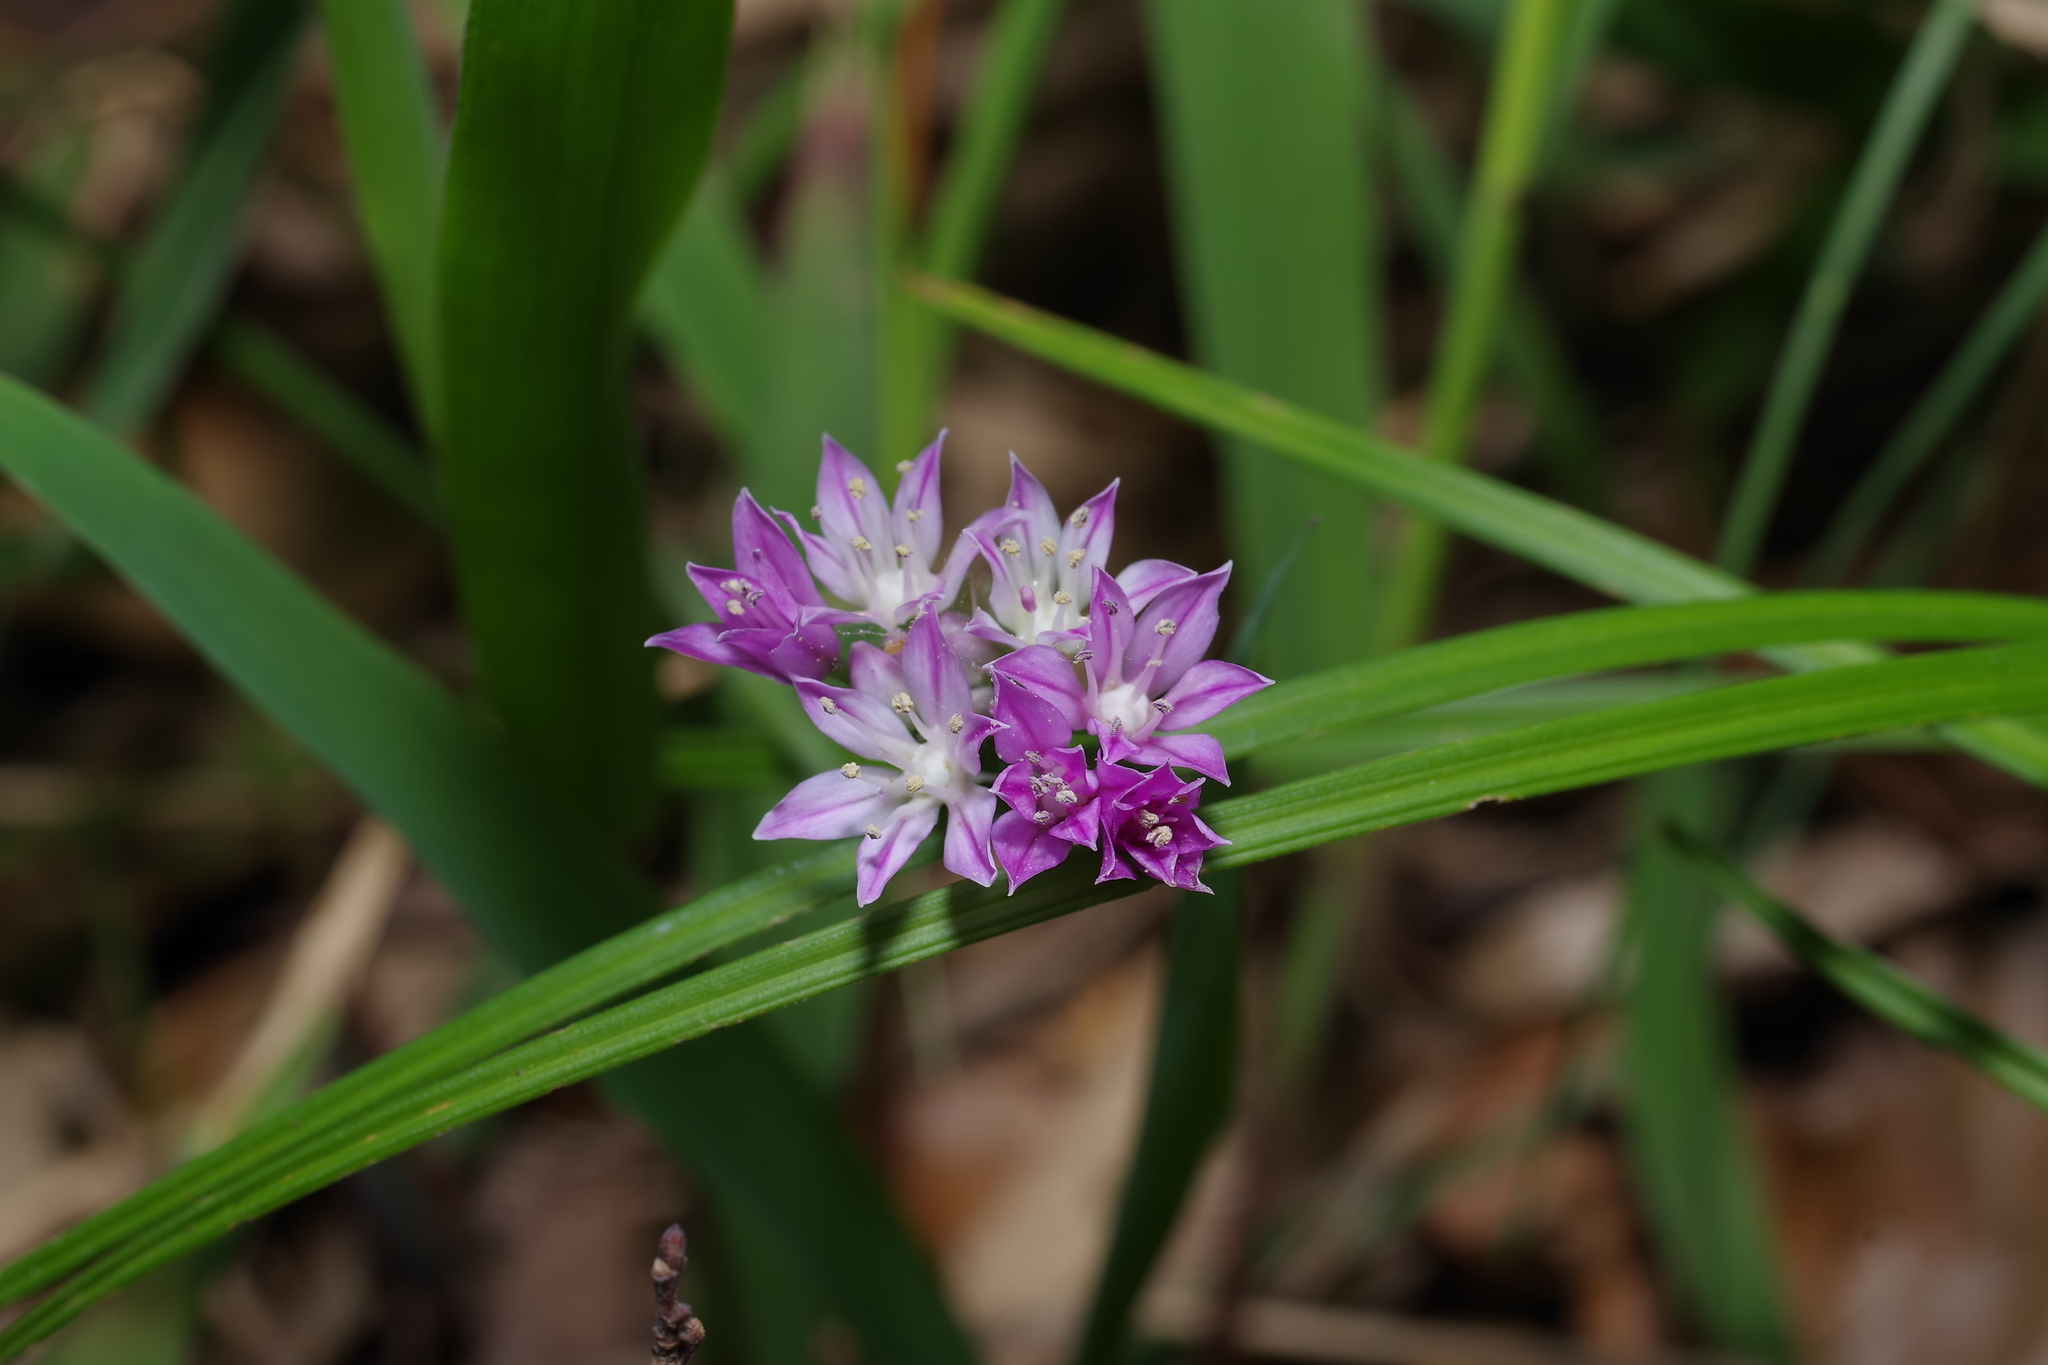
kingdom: Plantae
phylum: Tracheophyta
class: Liliopsida
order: Asparagales
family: Amaryllidaceae
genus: Allium
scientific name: Allium drummondii
